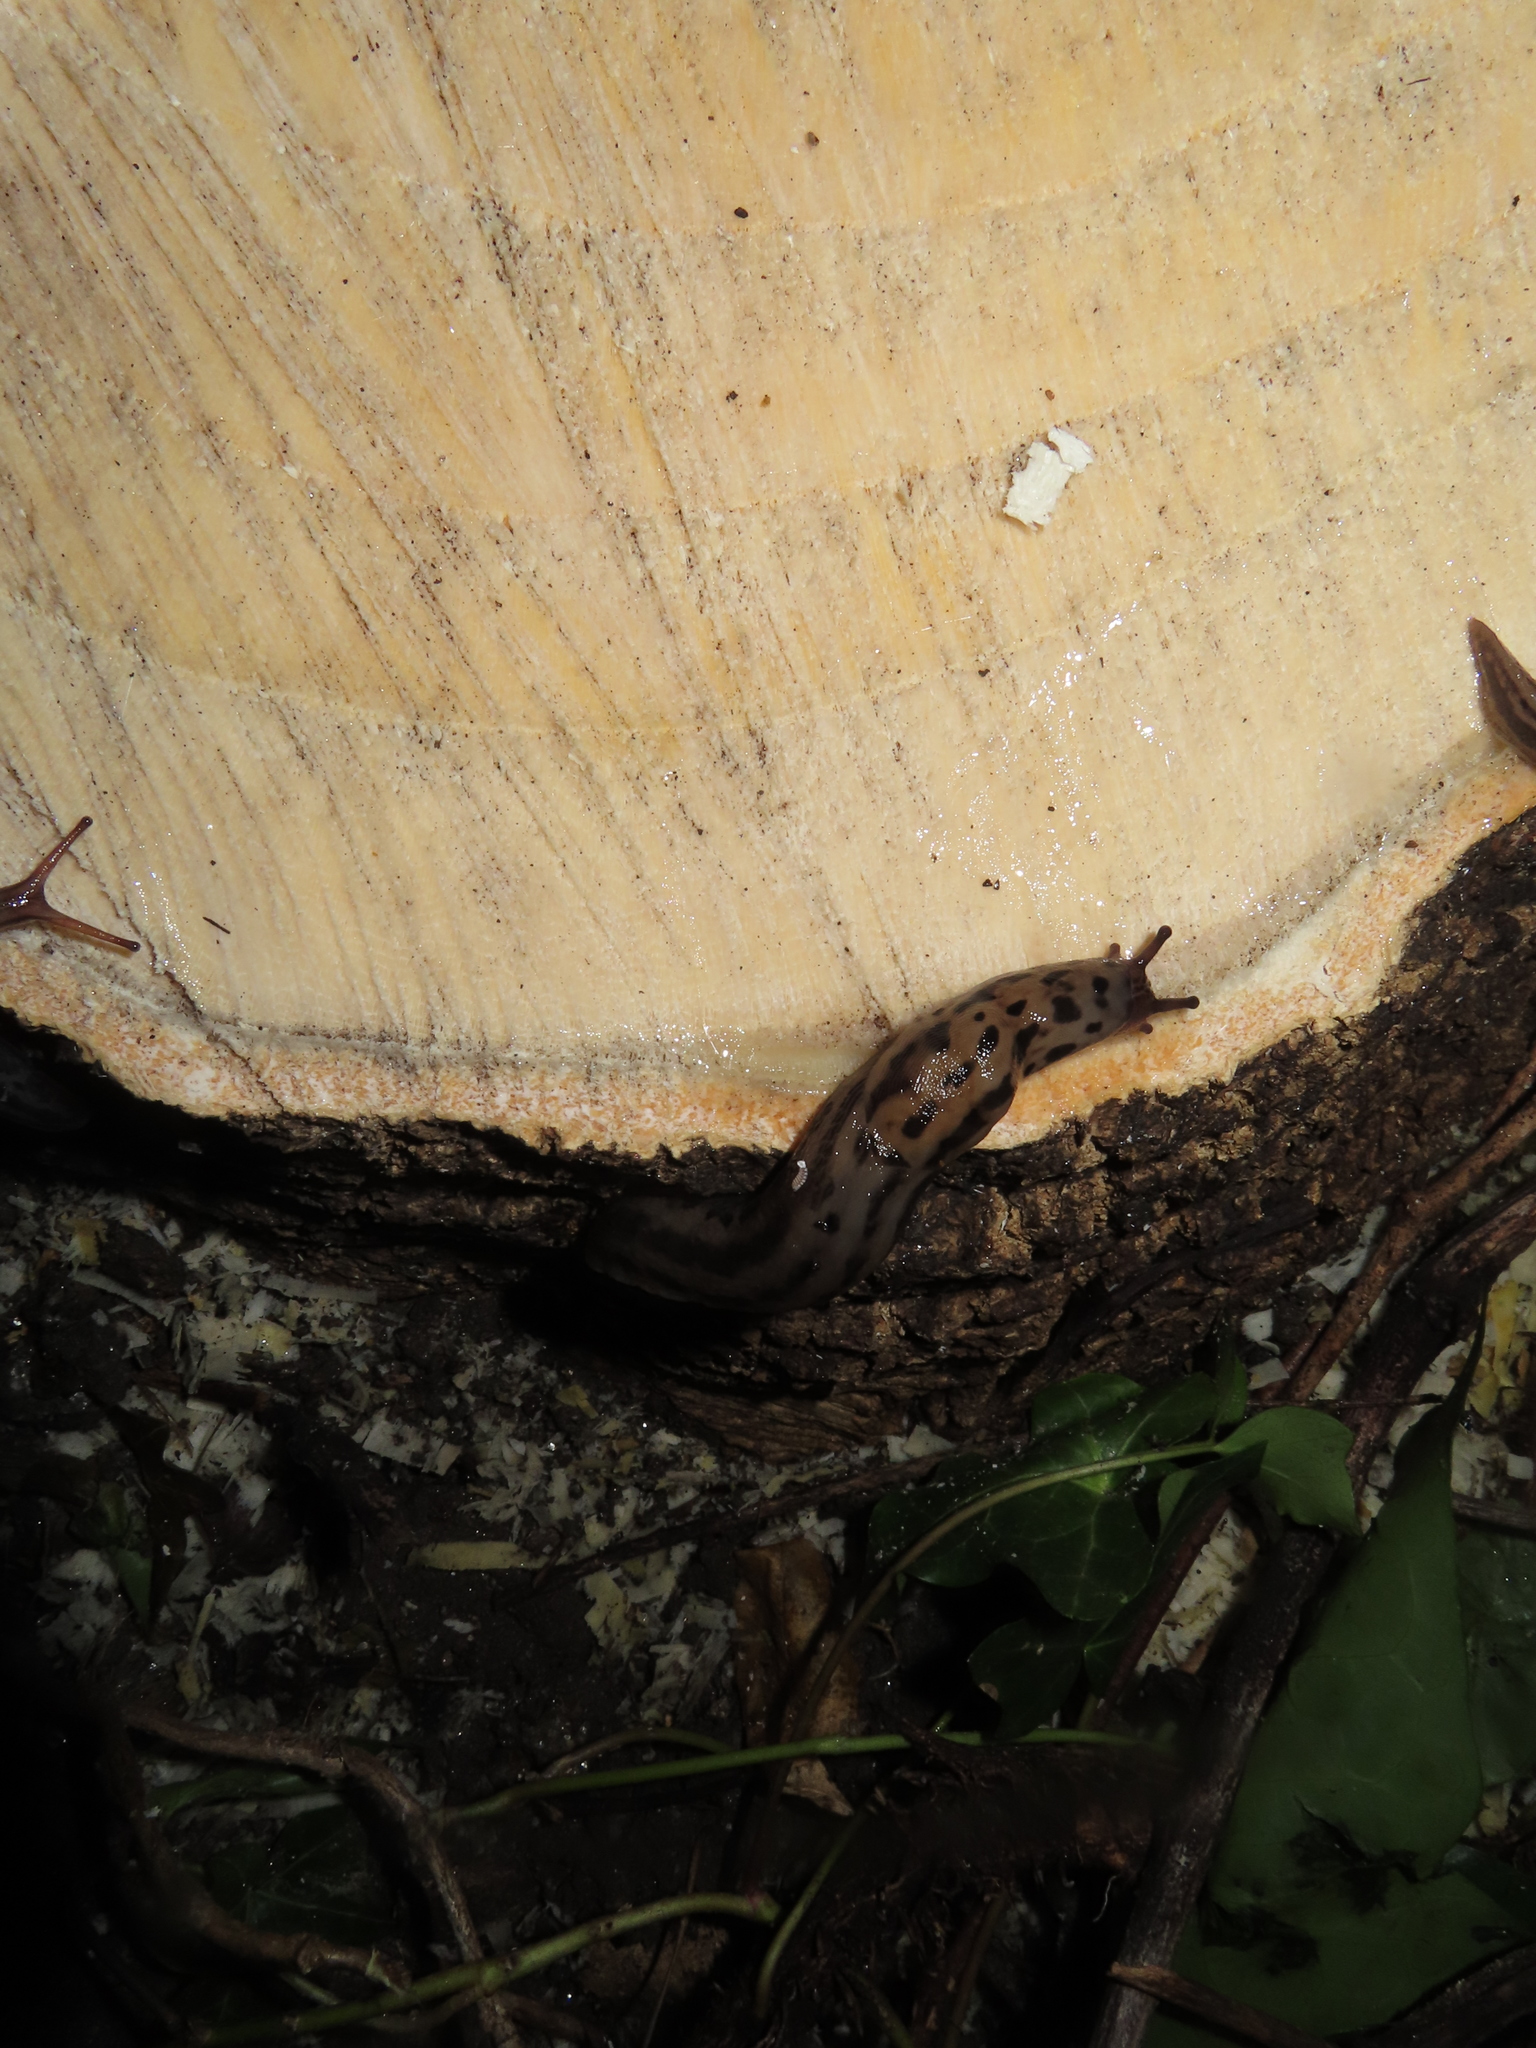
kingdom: Animalia
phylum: Mollusca
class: Gastropoda
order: Stylommatophora
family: Limacidae
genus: Limax
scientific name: Limax maximus
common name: Great grey slug
